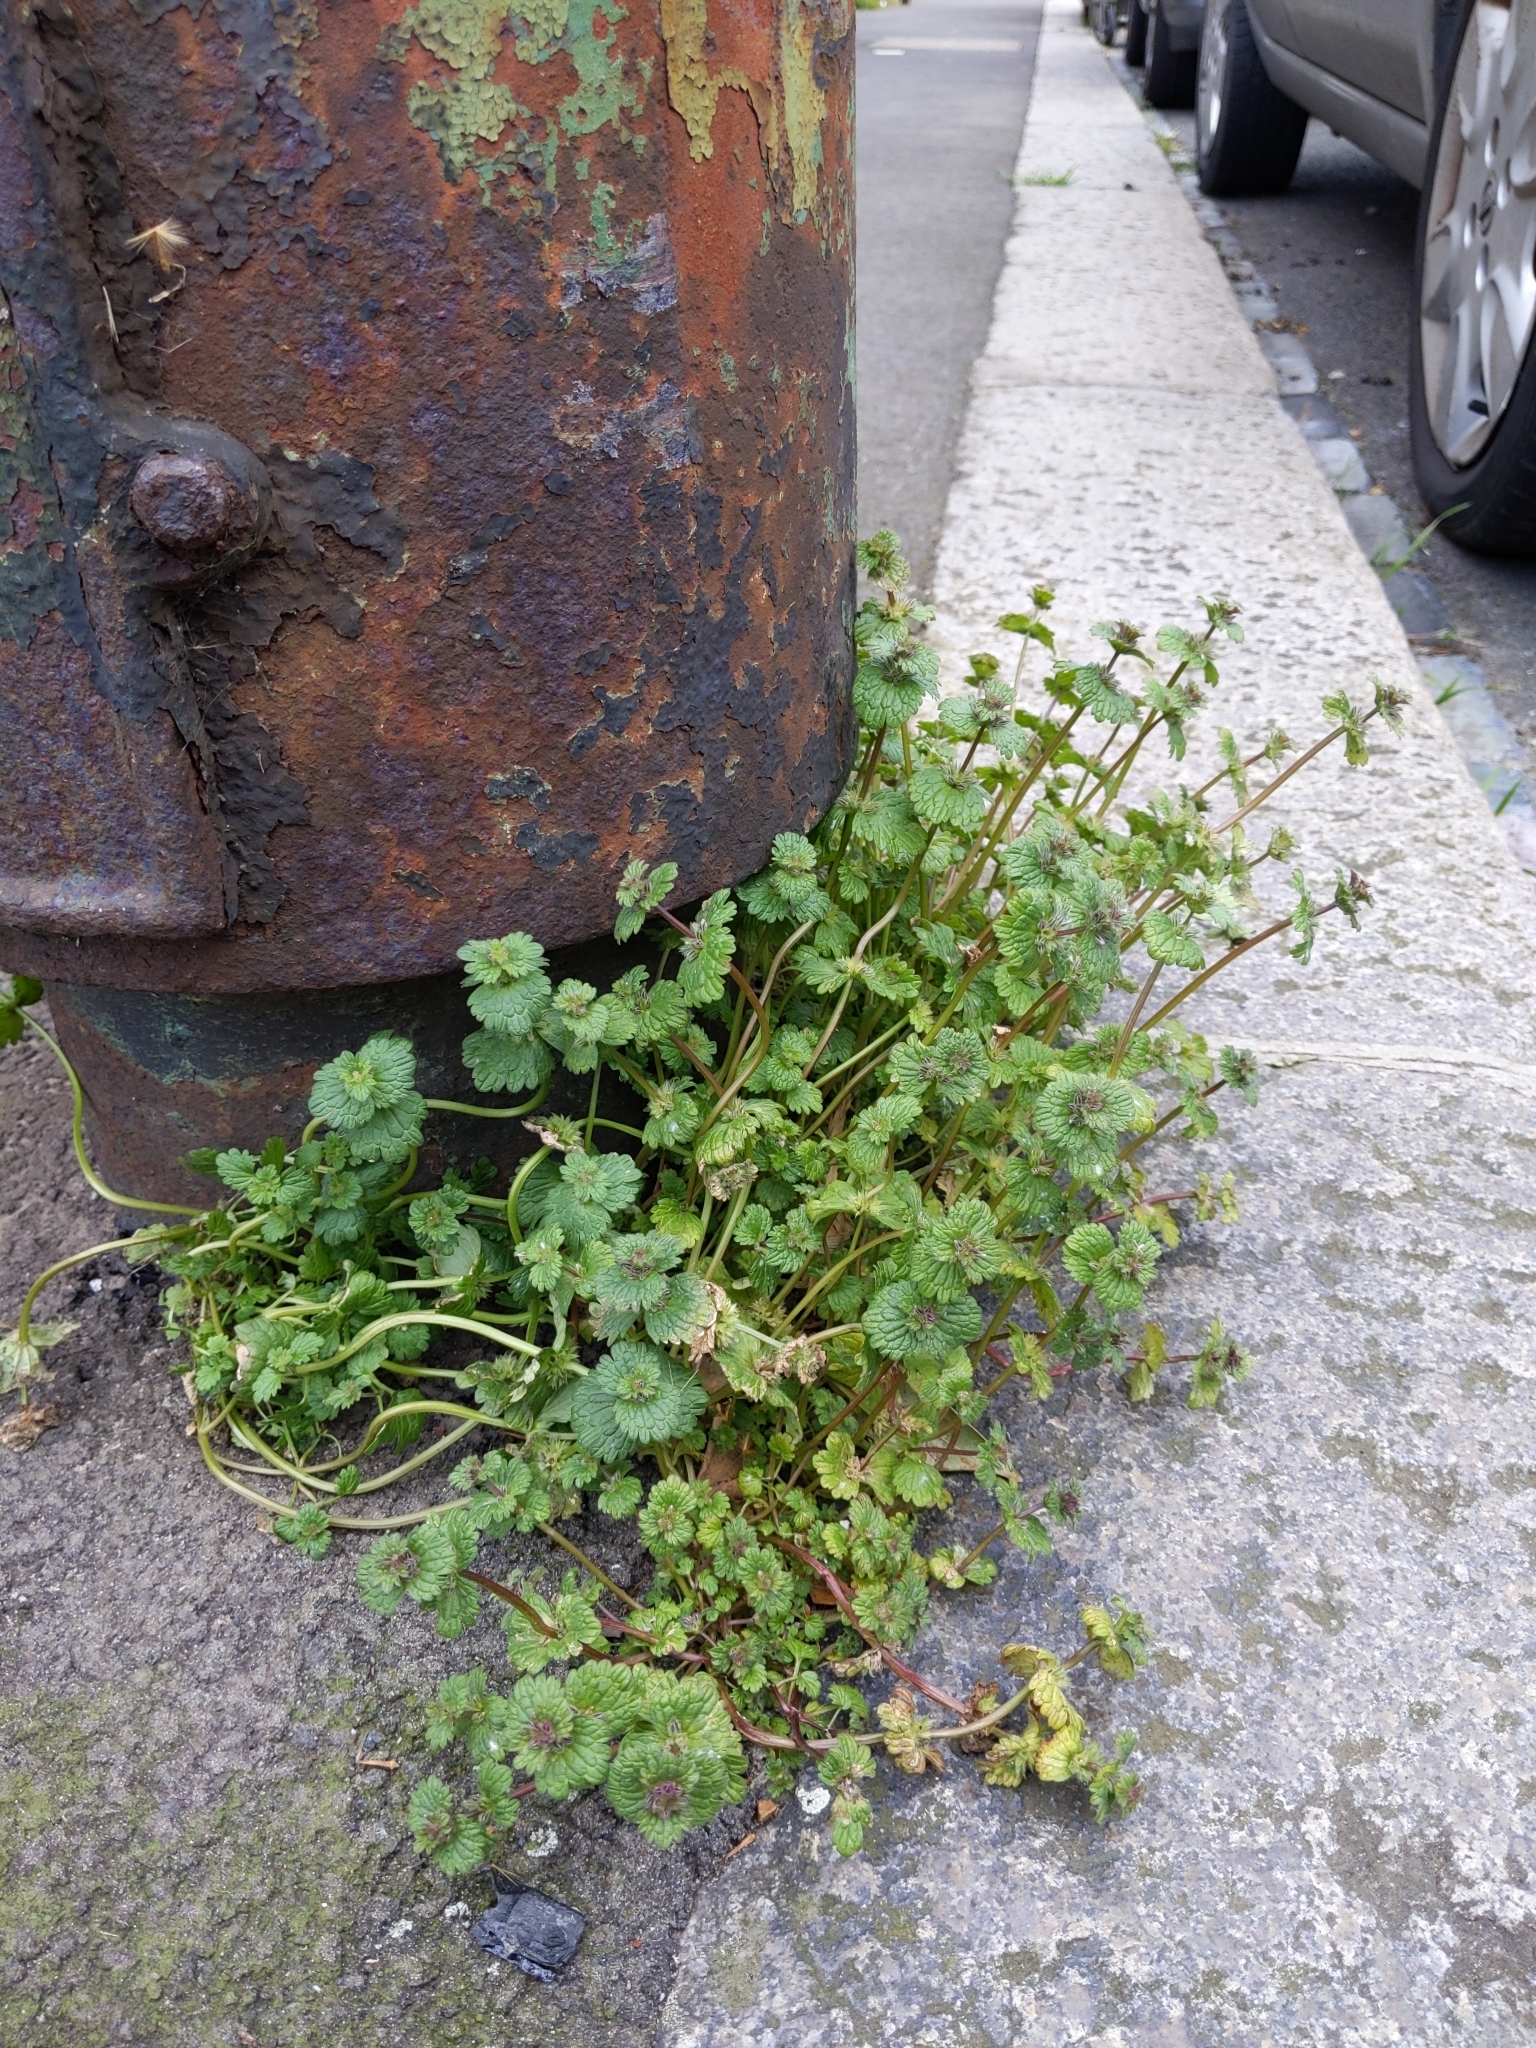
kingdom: Plantae
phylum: Tracheophyta
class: Magnoliopsida
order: Lamiales
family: Lamiaceae
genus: Lamium
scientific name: Lamium amplexicaule
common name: Henbit dead-nettle
